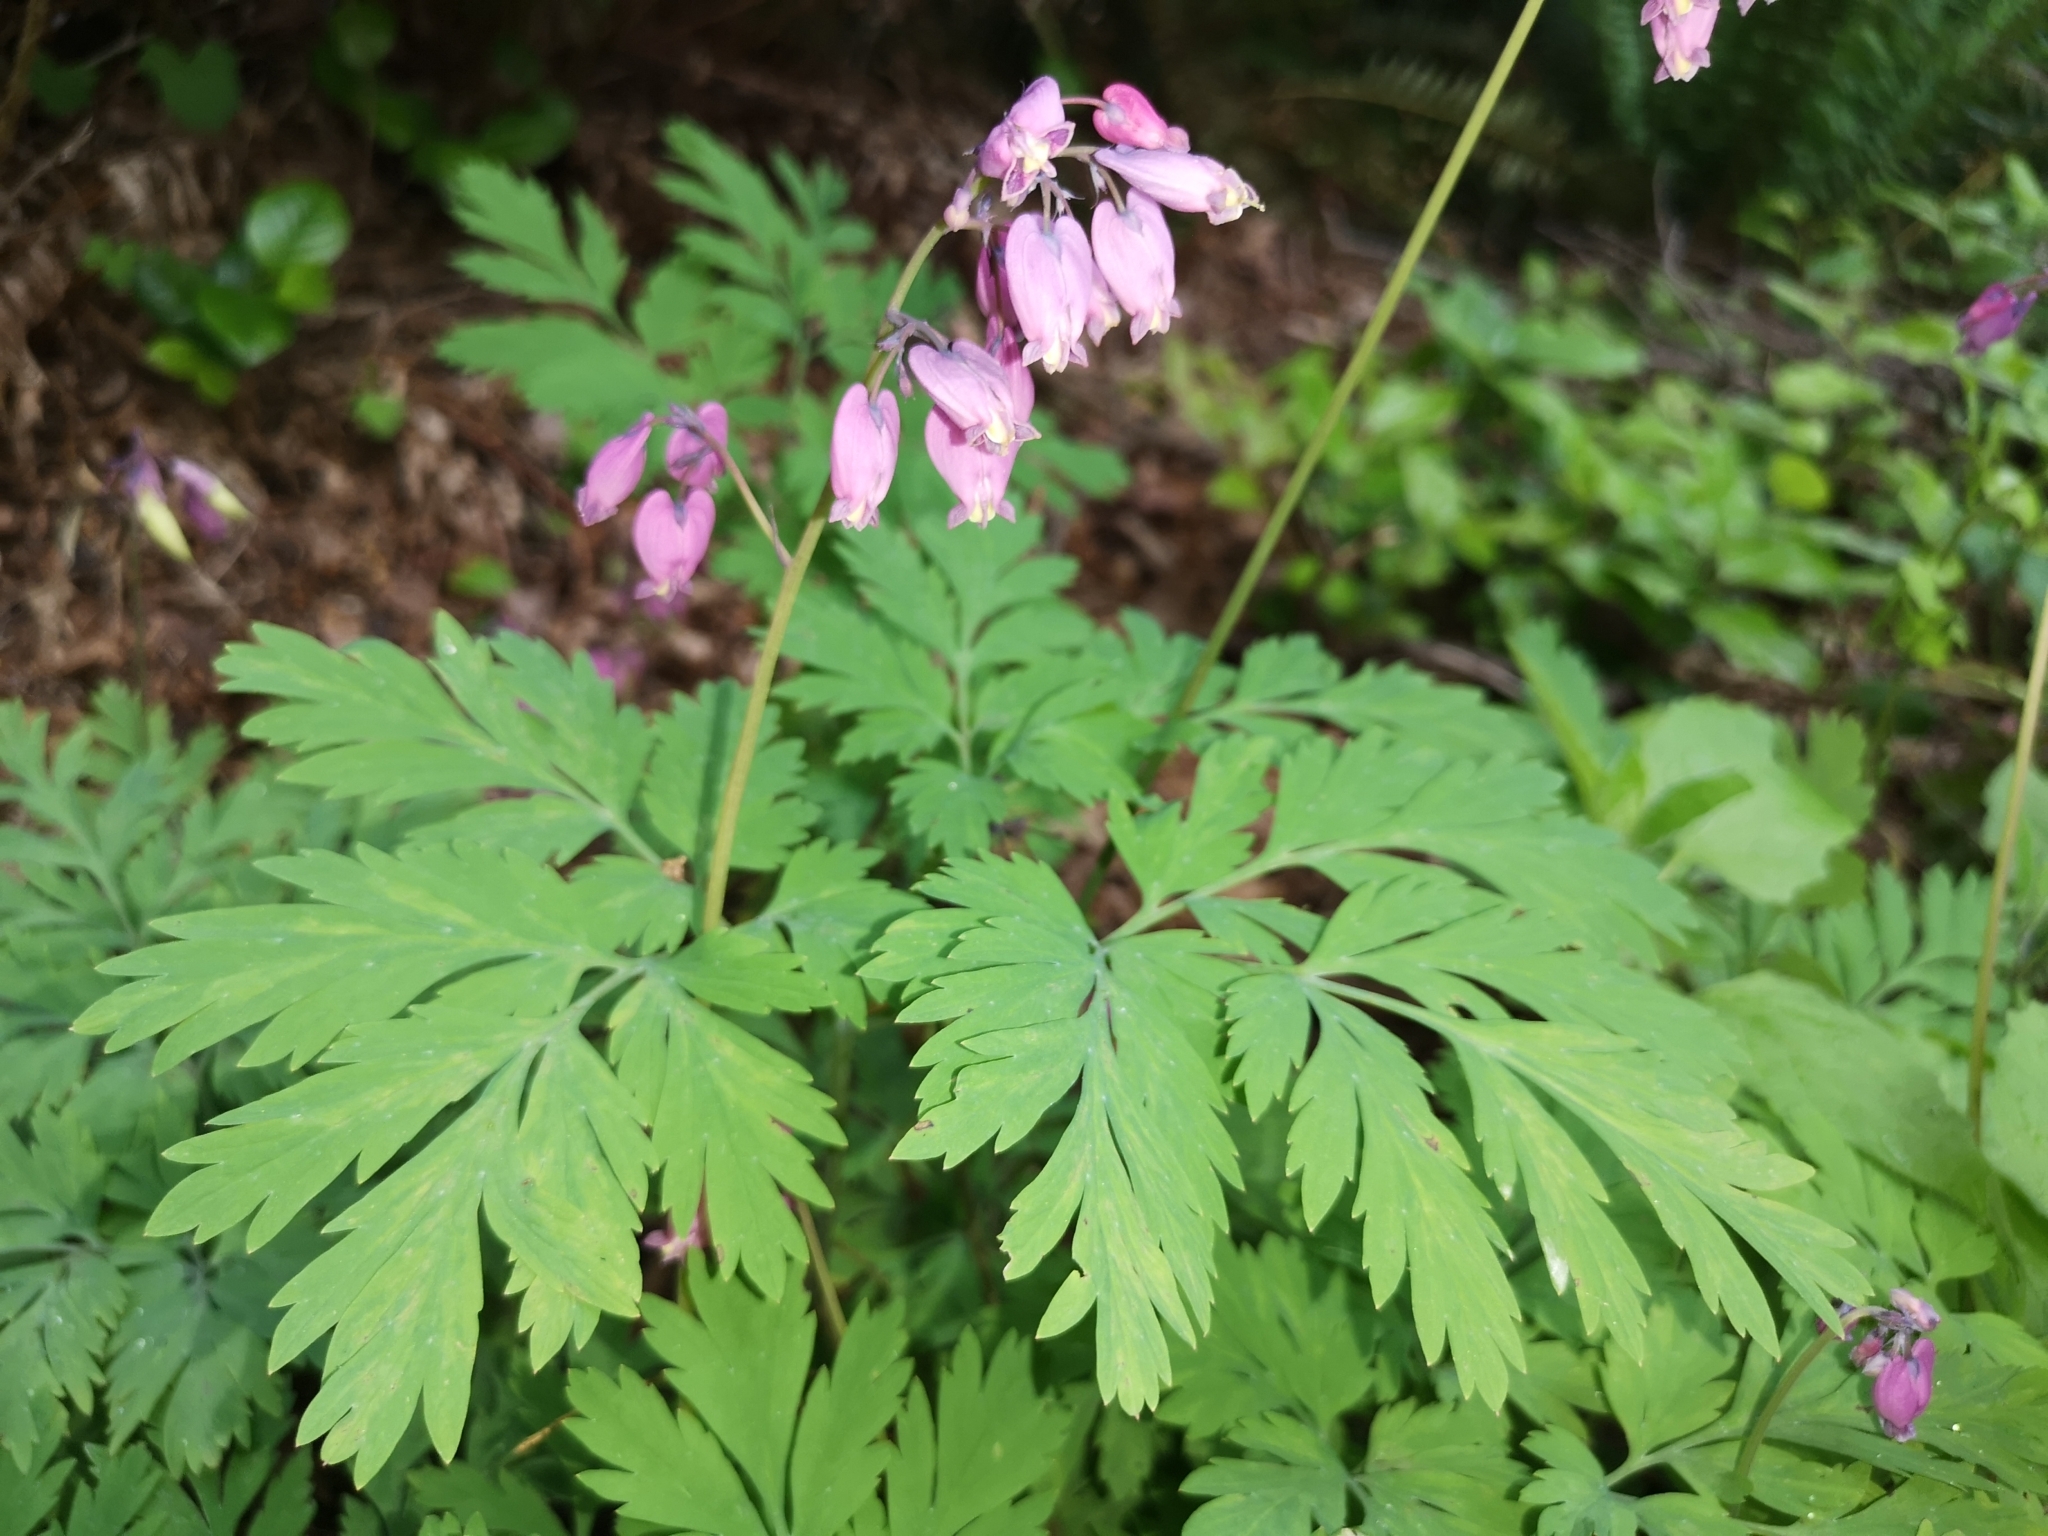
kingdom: Plantae
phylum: Tracheophyta
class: Magnoliopsida
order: Ranunculales
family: Papaveraceae
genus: Dicentra
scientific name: Dicentra formosa
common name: Bleeding-heart
